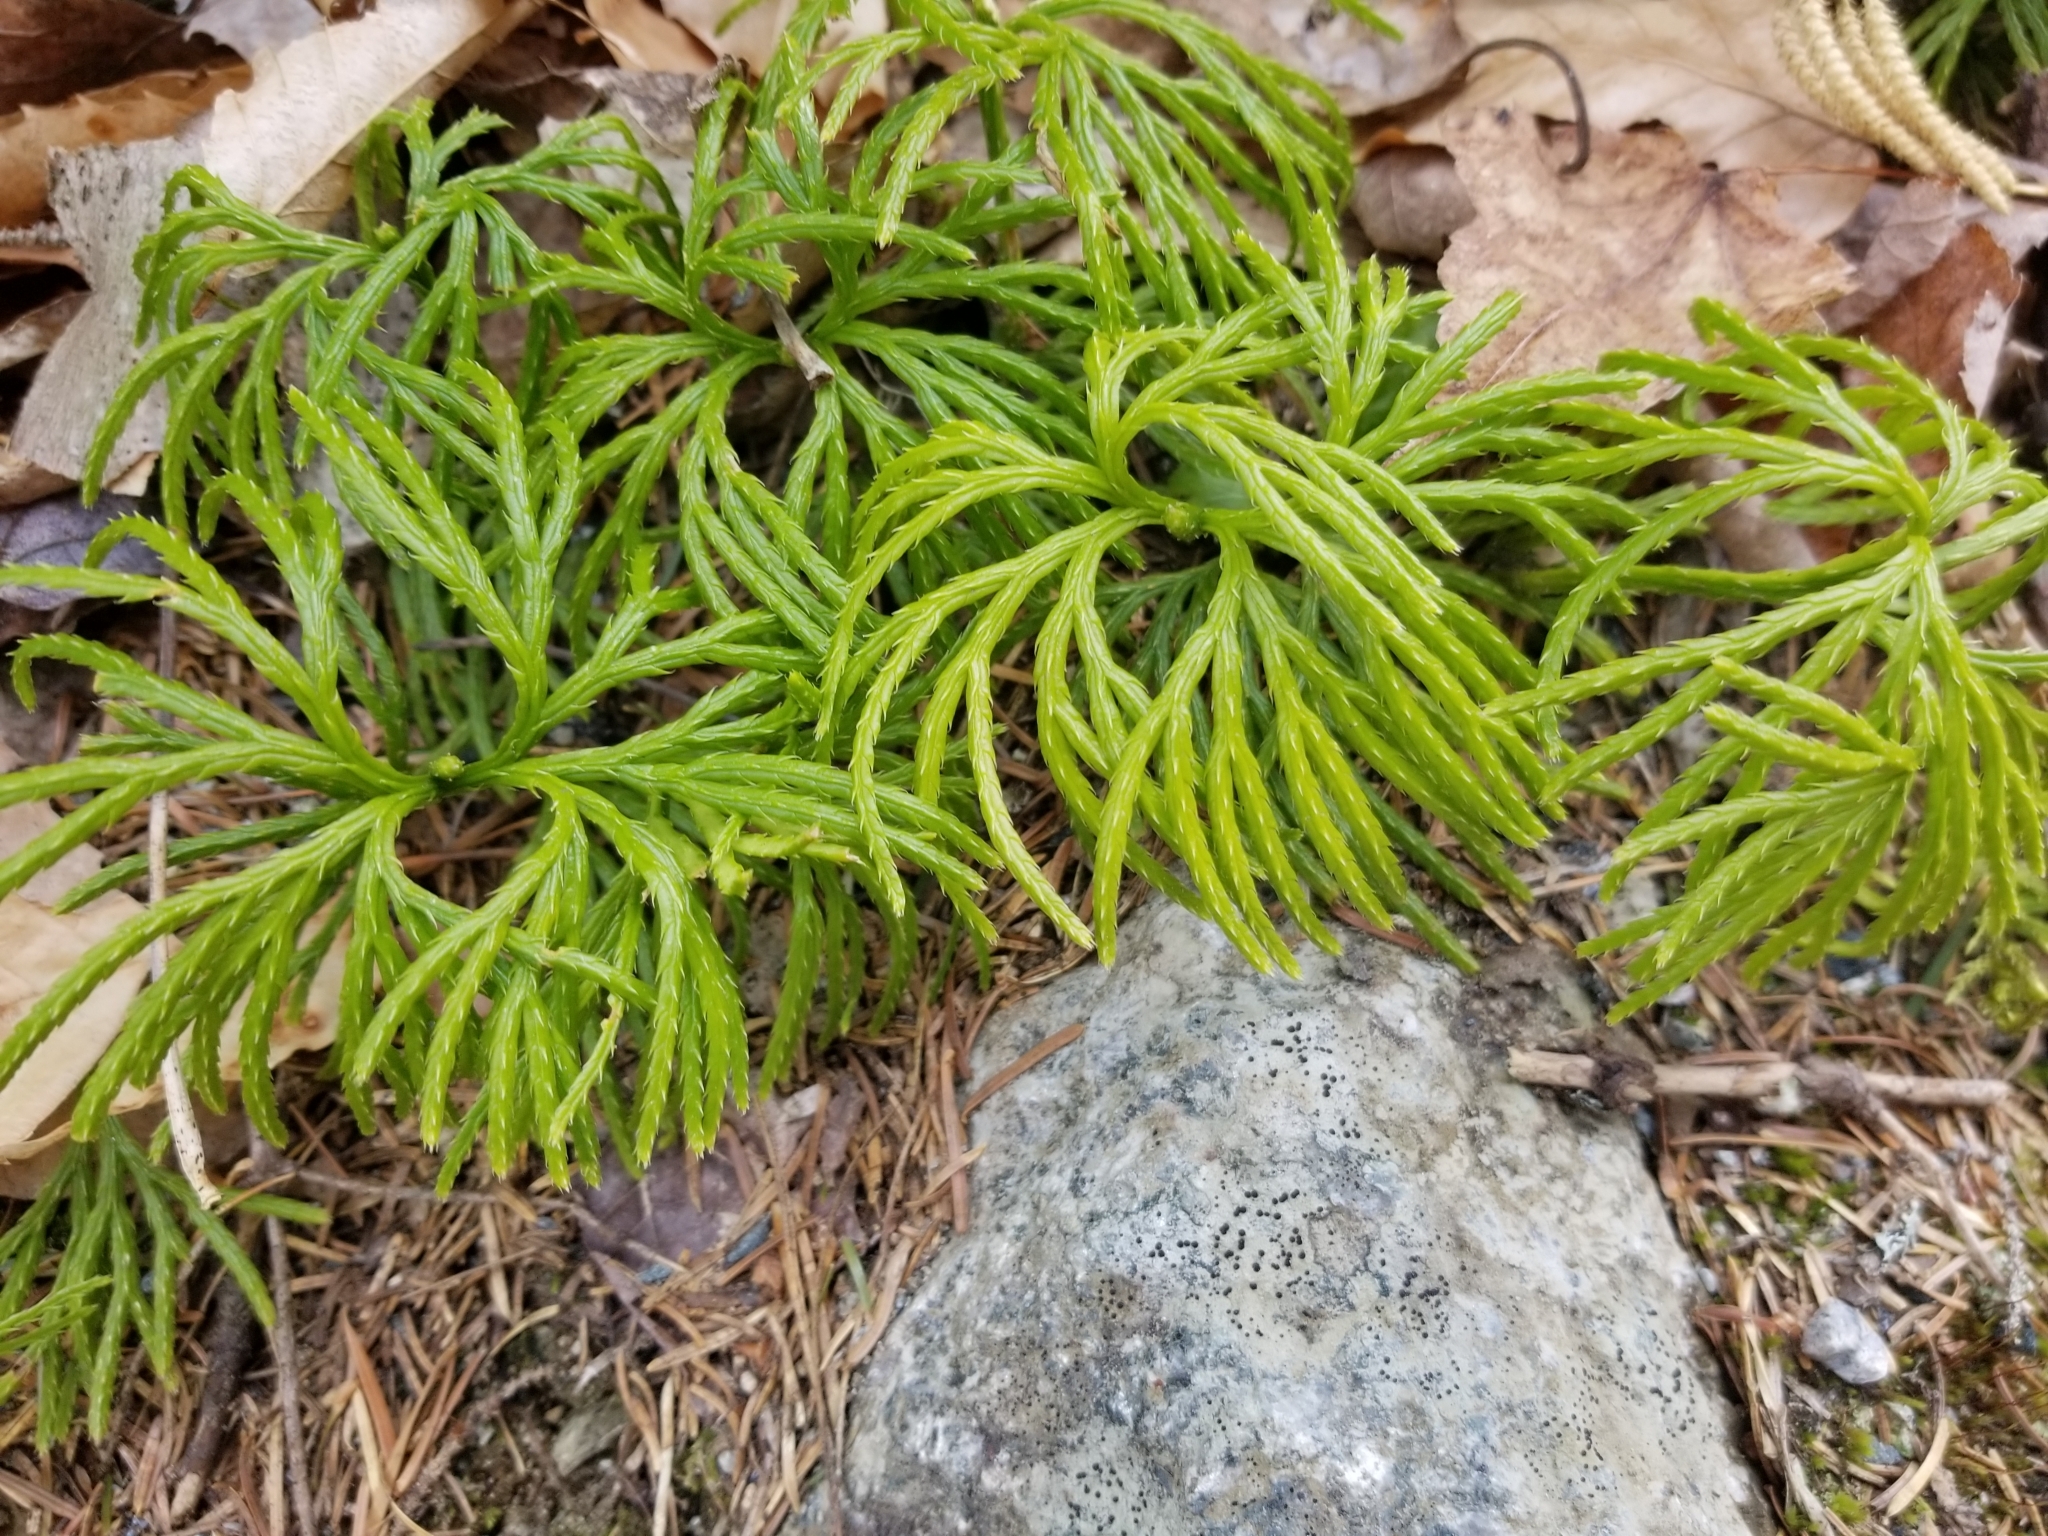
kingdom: Plantae
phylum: Tracheophyta
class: Lycopodiopsida
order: Lycopodiales
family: Lycopodiaceae
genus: Diphasiastrum
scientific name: Diphasiastrum digitatum
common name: Southern running-pine
